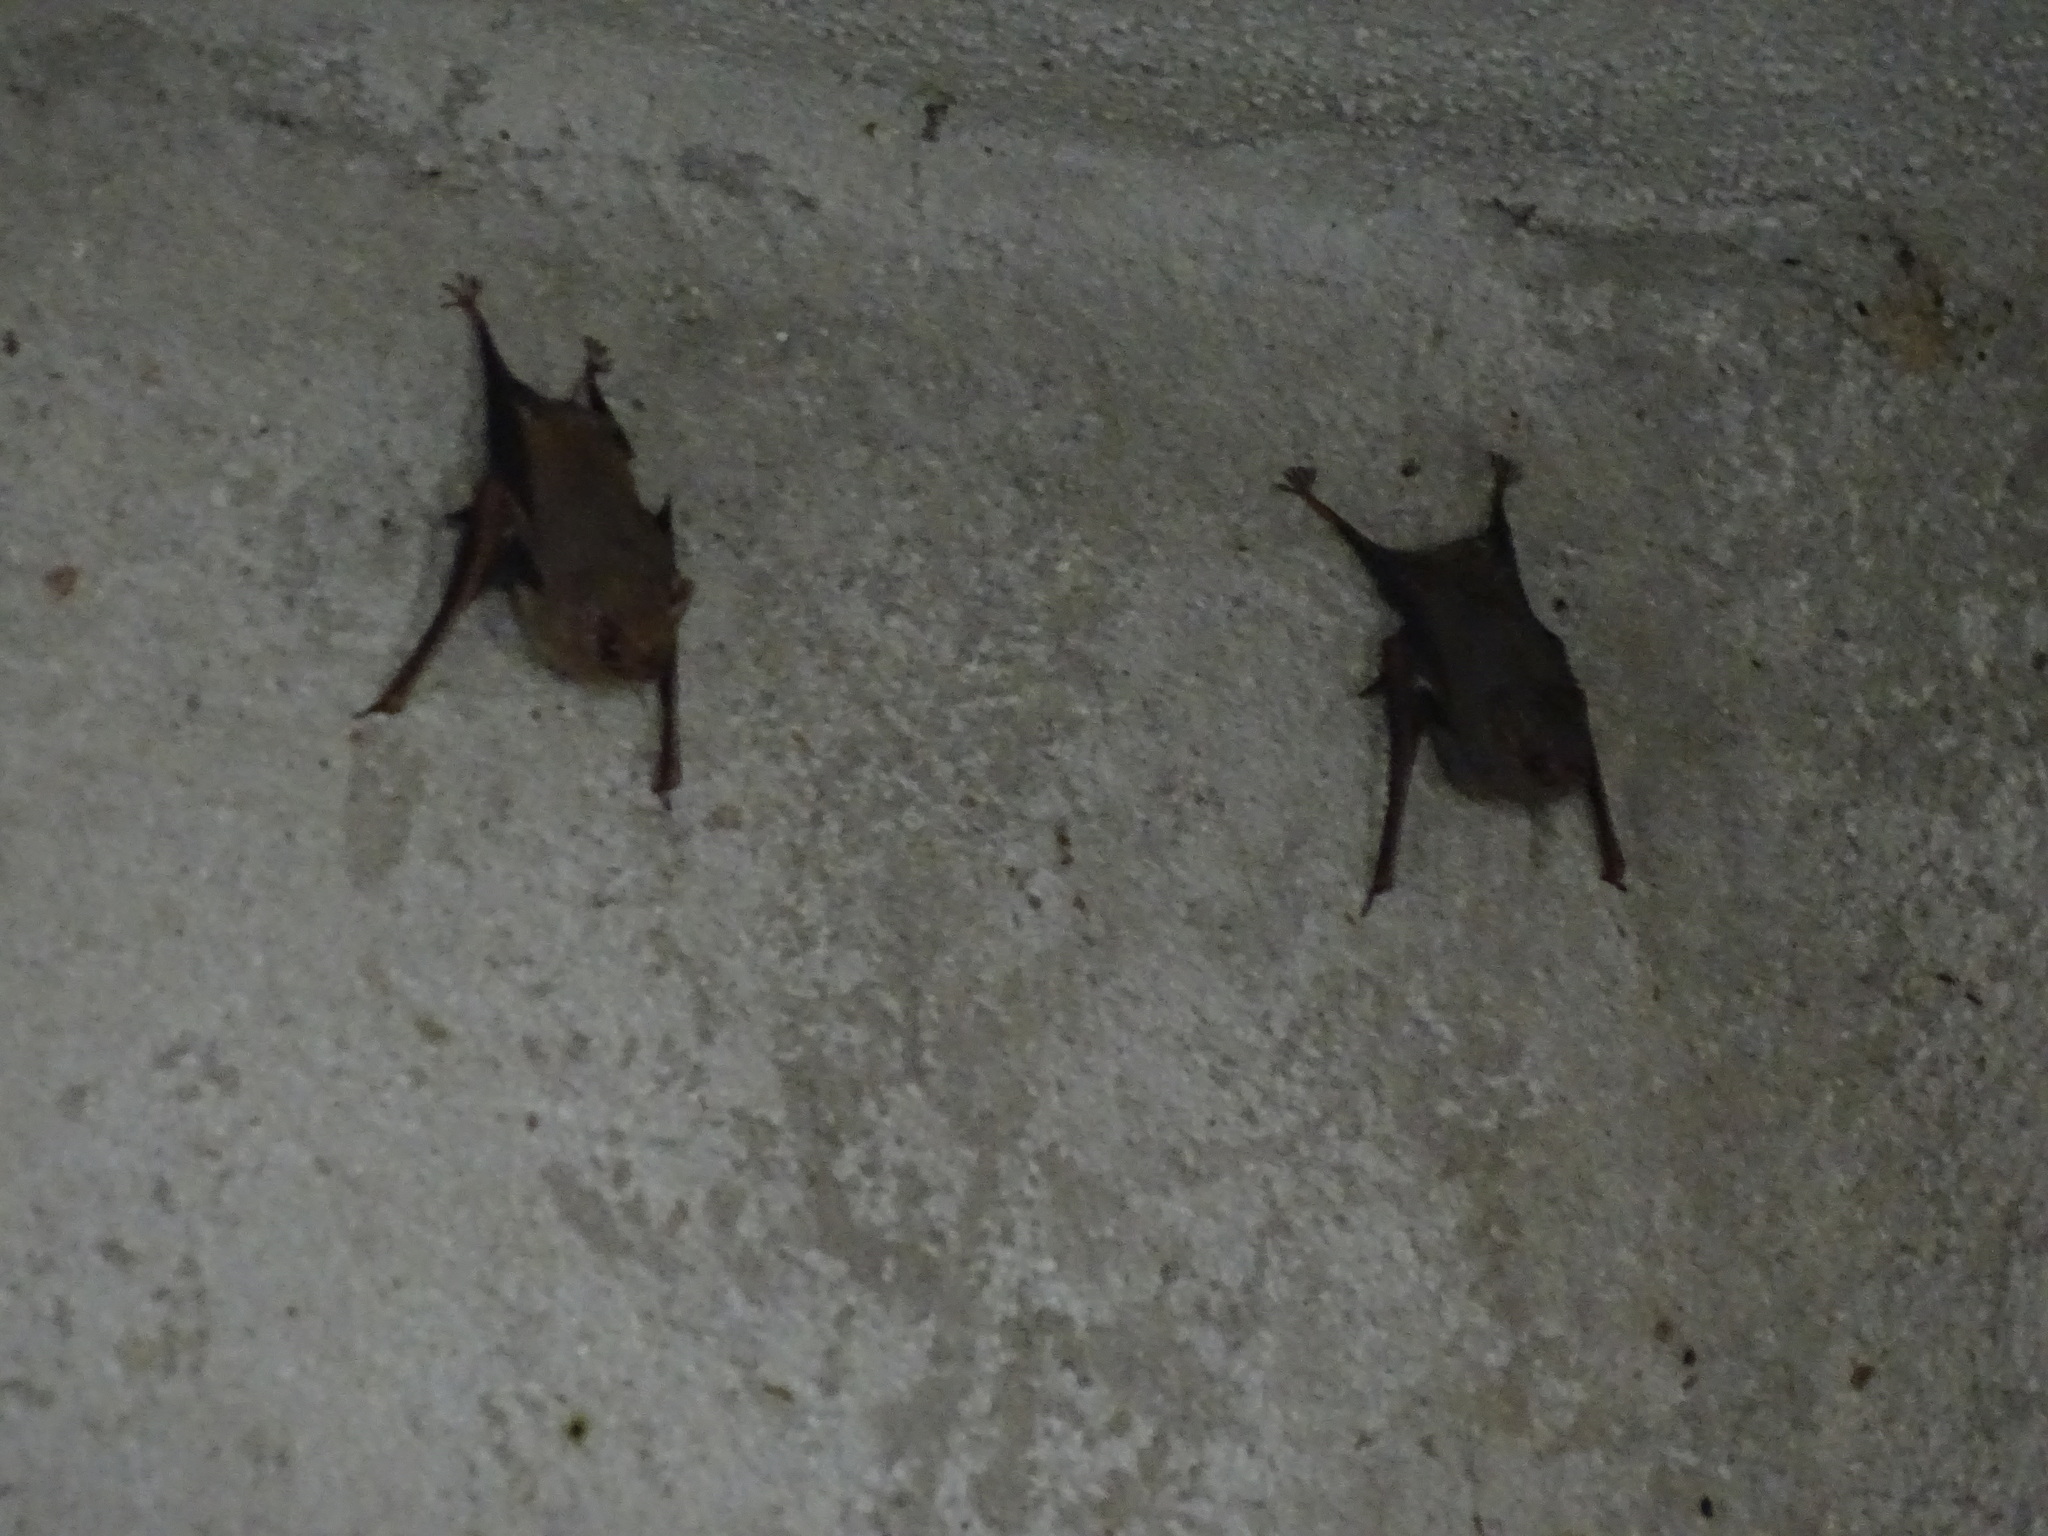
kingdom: Animalia
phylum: Chordata
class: Mammalia
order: Chiroptera
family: Emballonuridae
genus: Balantiopteryx
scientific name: Balantiopteryx plicata
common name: Gray sac-winged bat
